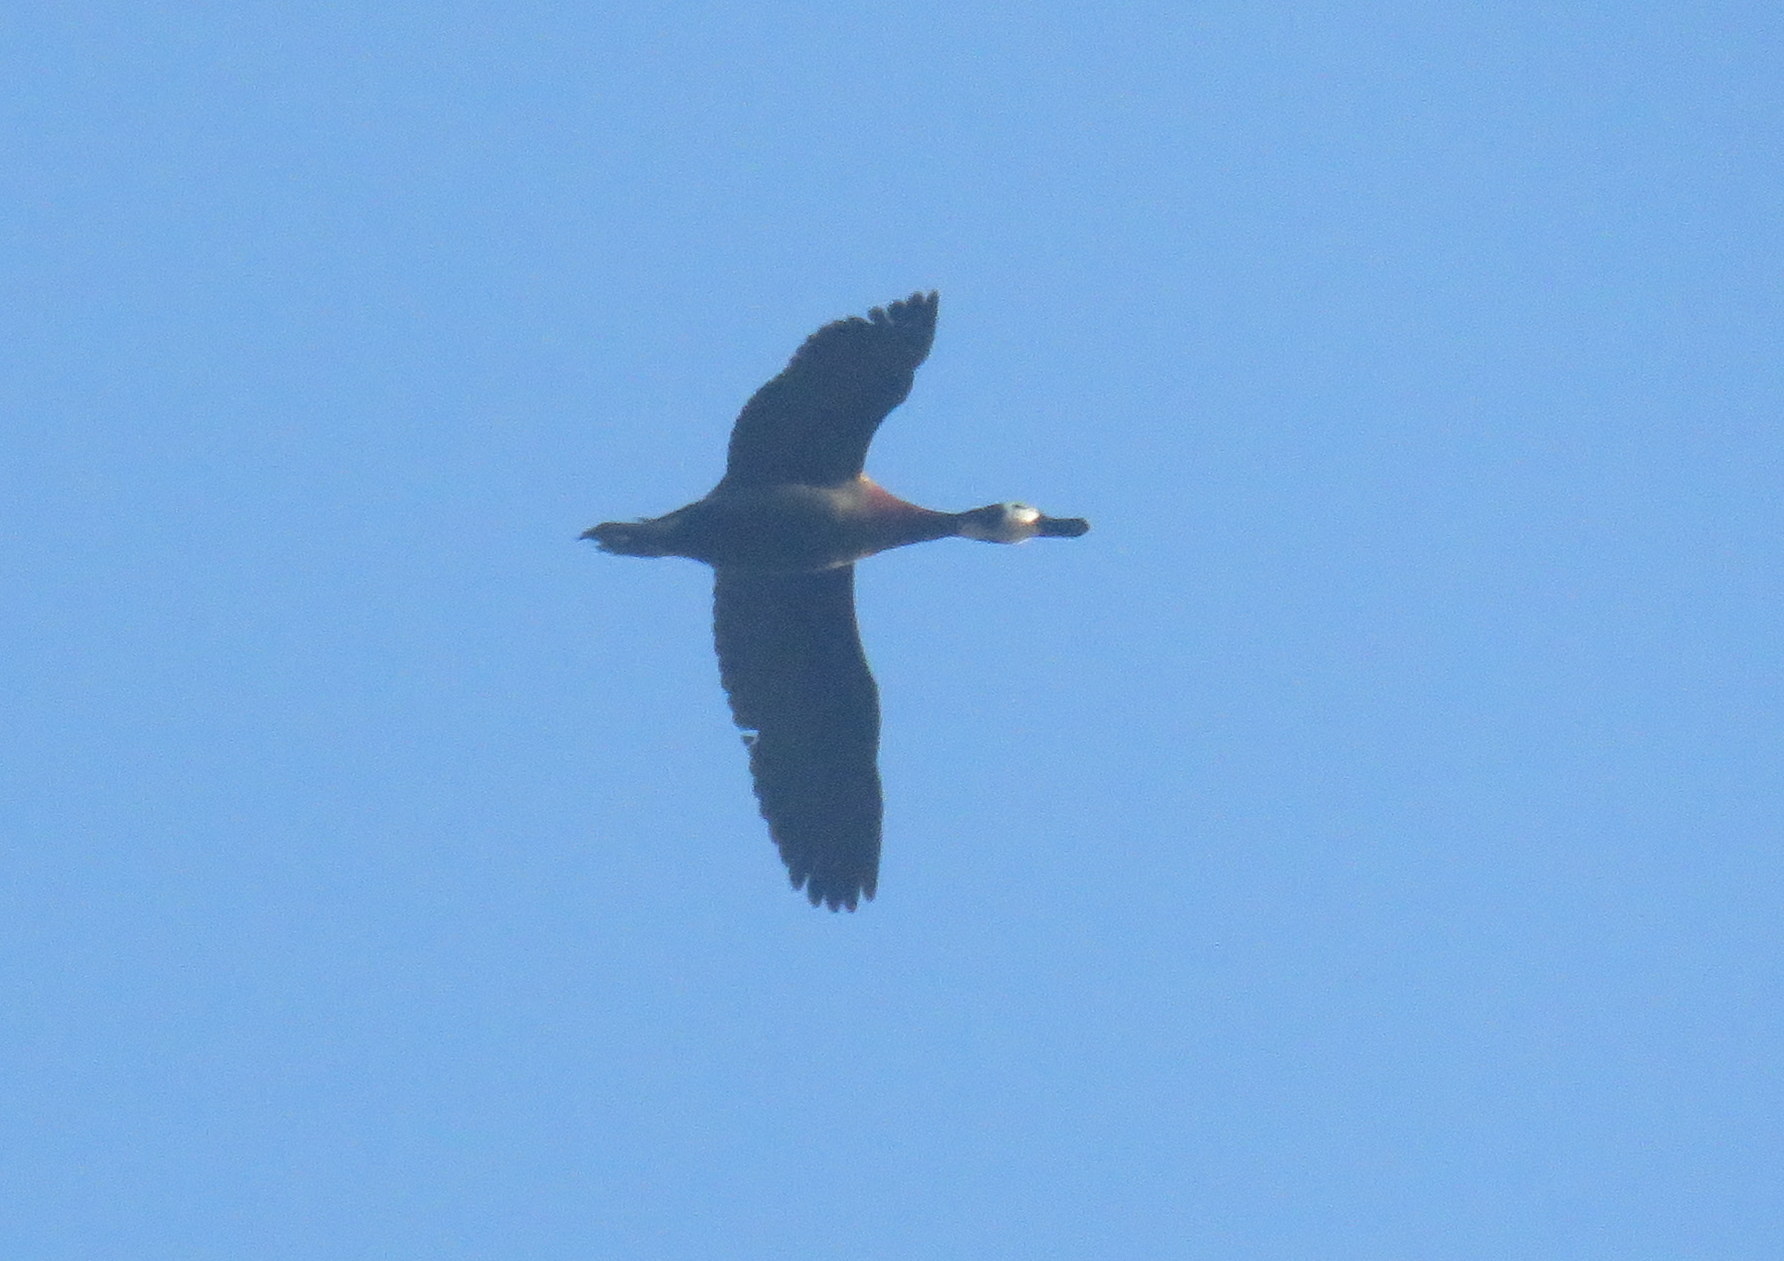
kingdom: Animalia
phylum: Chordata
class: Aves
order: Anseriformes
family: Anatidae
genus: Dendrocygna
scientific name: Dendrocygna viduata
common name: White-faced whistling duck
